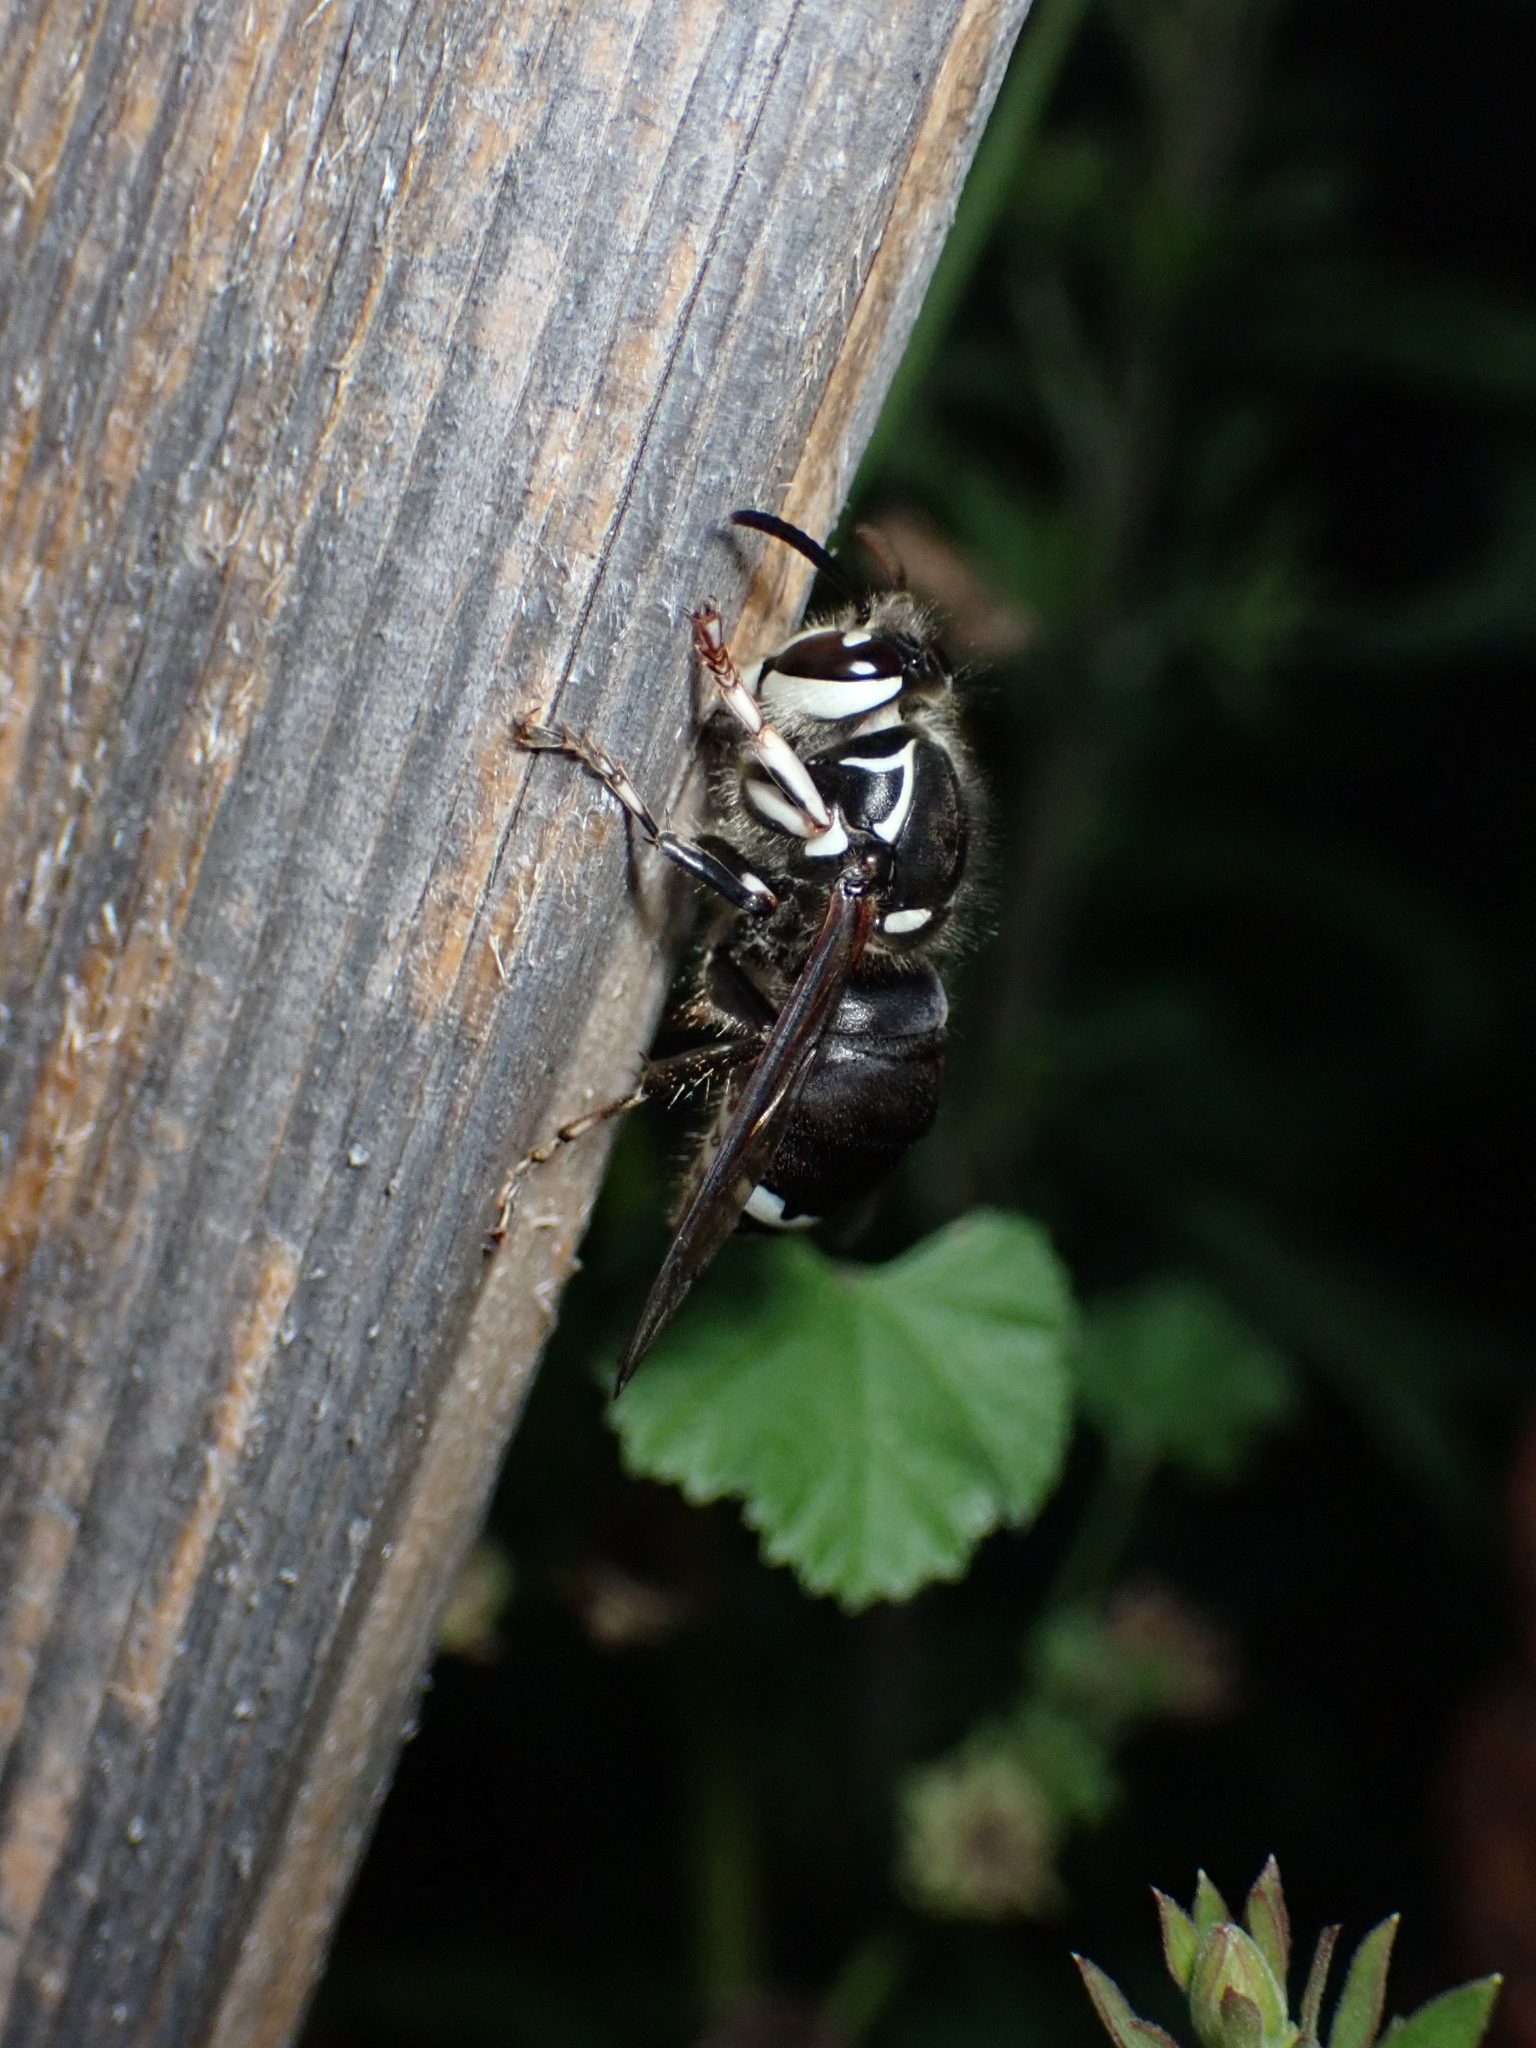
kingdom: Animalia
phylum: Arthropoda
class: Insecta
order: Hymenoptera
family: Vespidae
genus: Dolichovespula
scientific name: Dolichovespula maculata
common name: Bald-faced hornet
